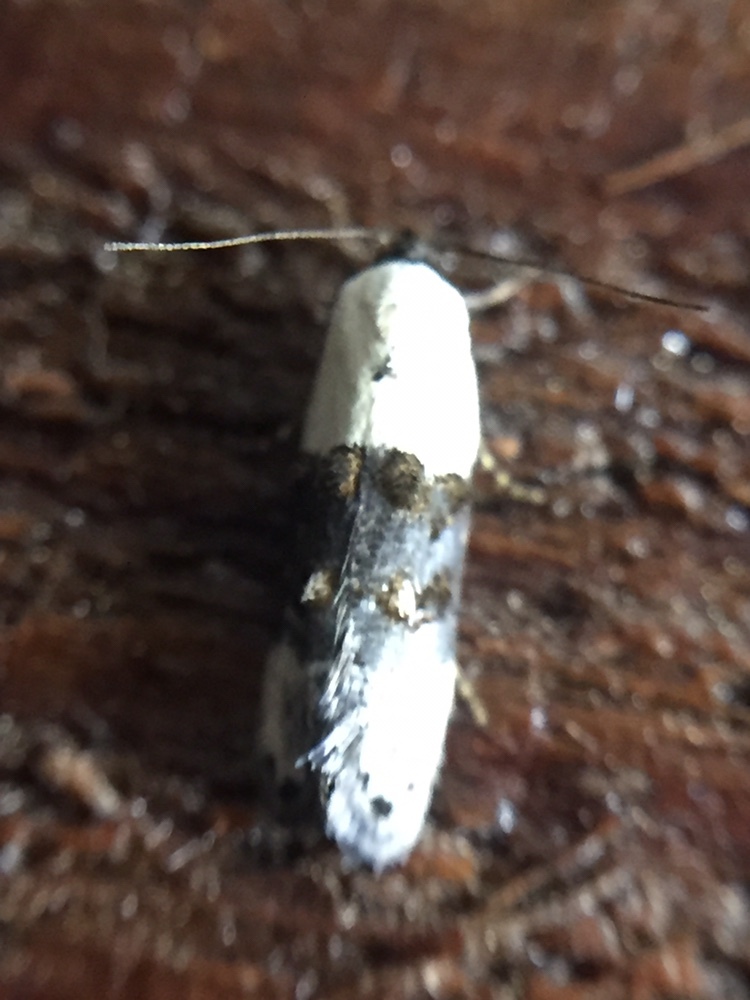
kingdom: Animalia
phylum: Arthropoda
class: Insecta
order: Lepidoptera
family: Oecophoridae
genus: Trachypepla
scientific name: Trachypepla amphileuca
